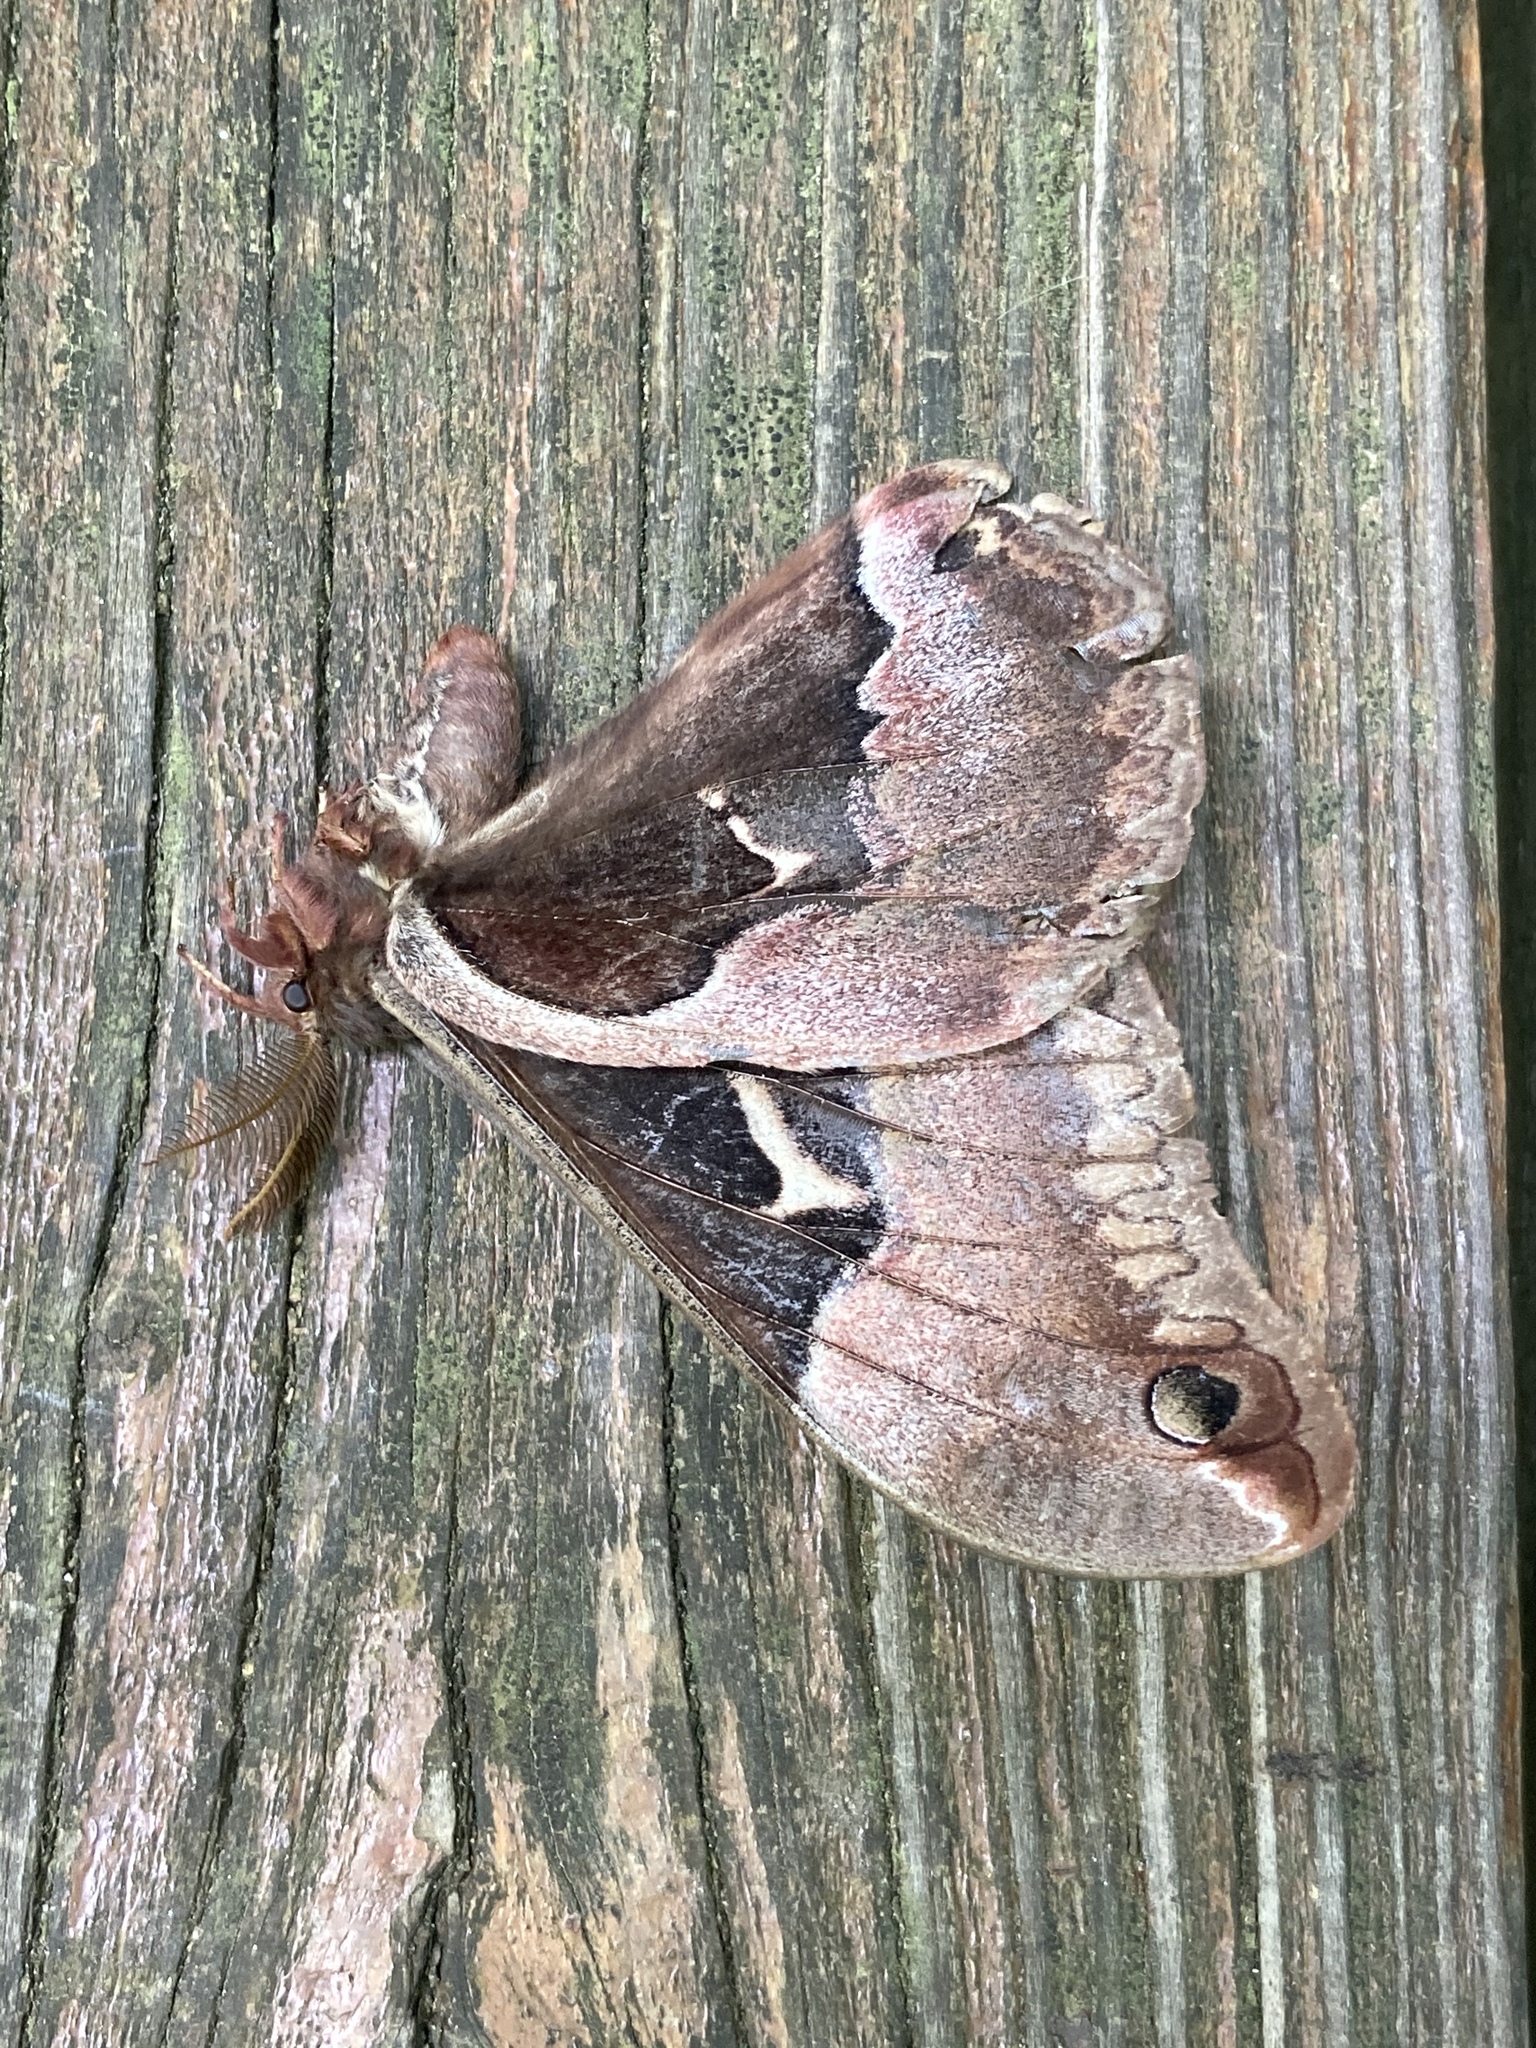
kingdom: Animalia
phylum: Arthropoda
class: Insecta
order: Lepidoptera
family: Saturniidae
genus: Callosamia
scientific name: Callosamia angulifera
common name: Tulip tree silkmoth
